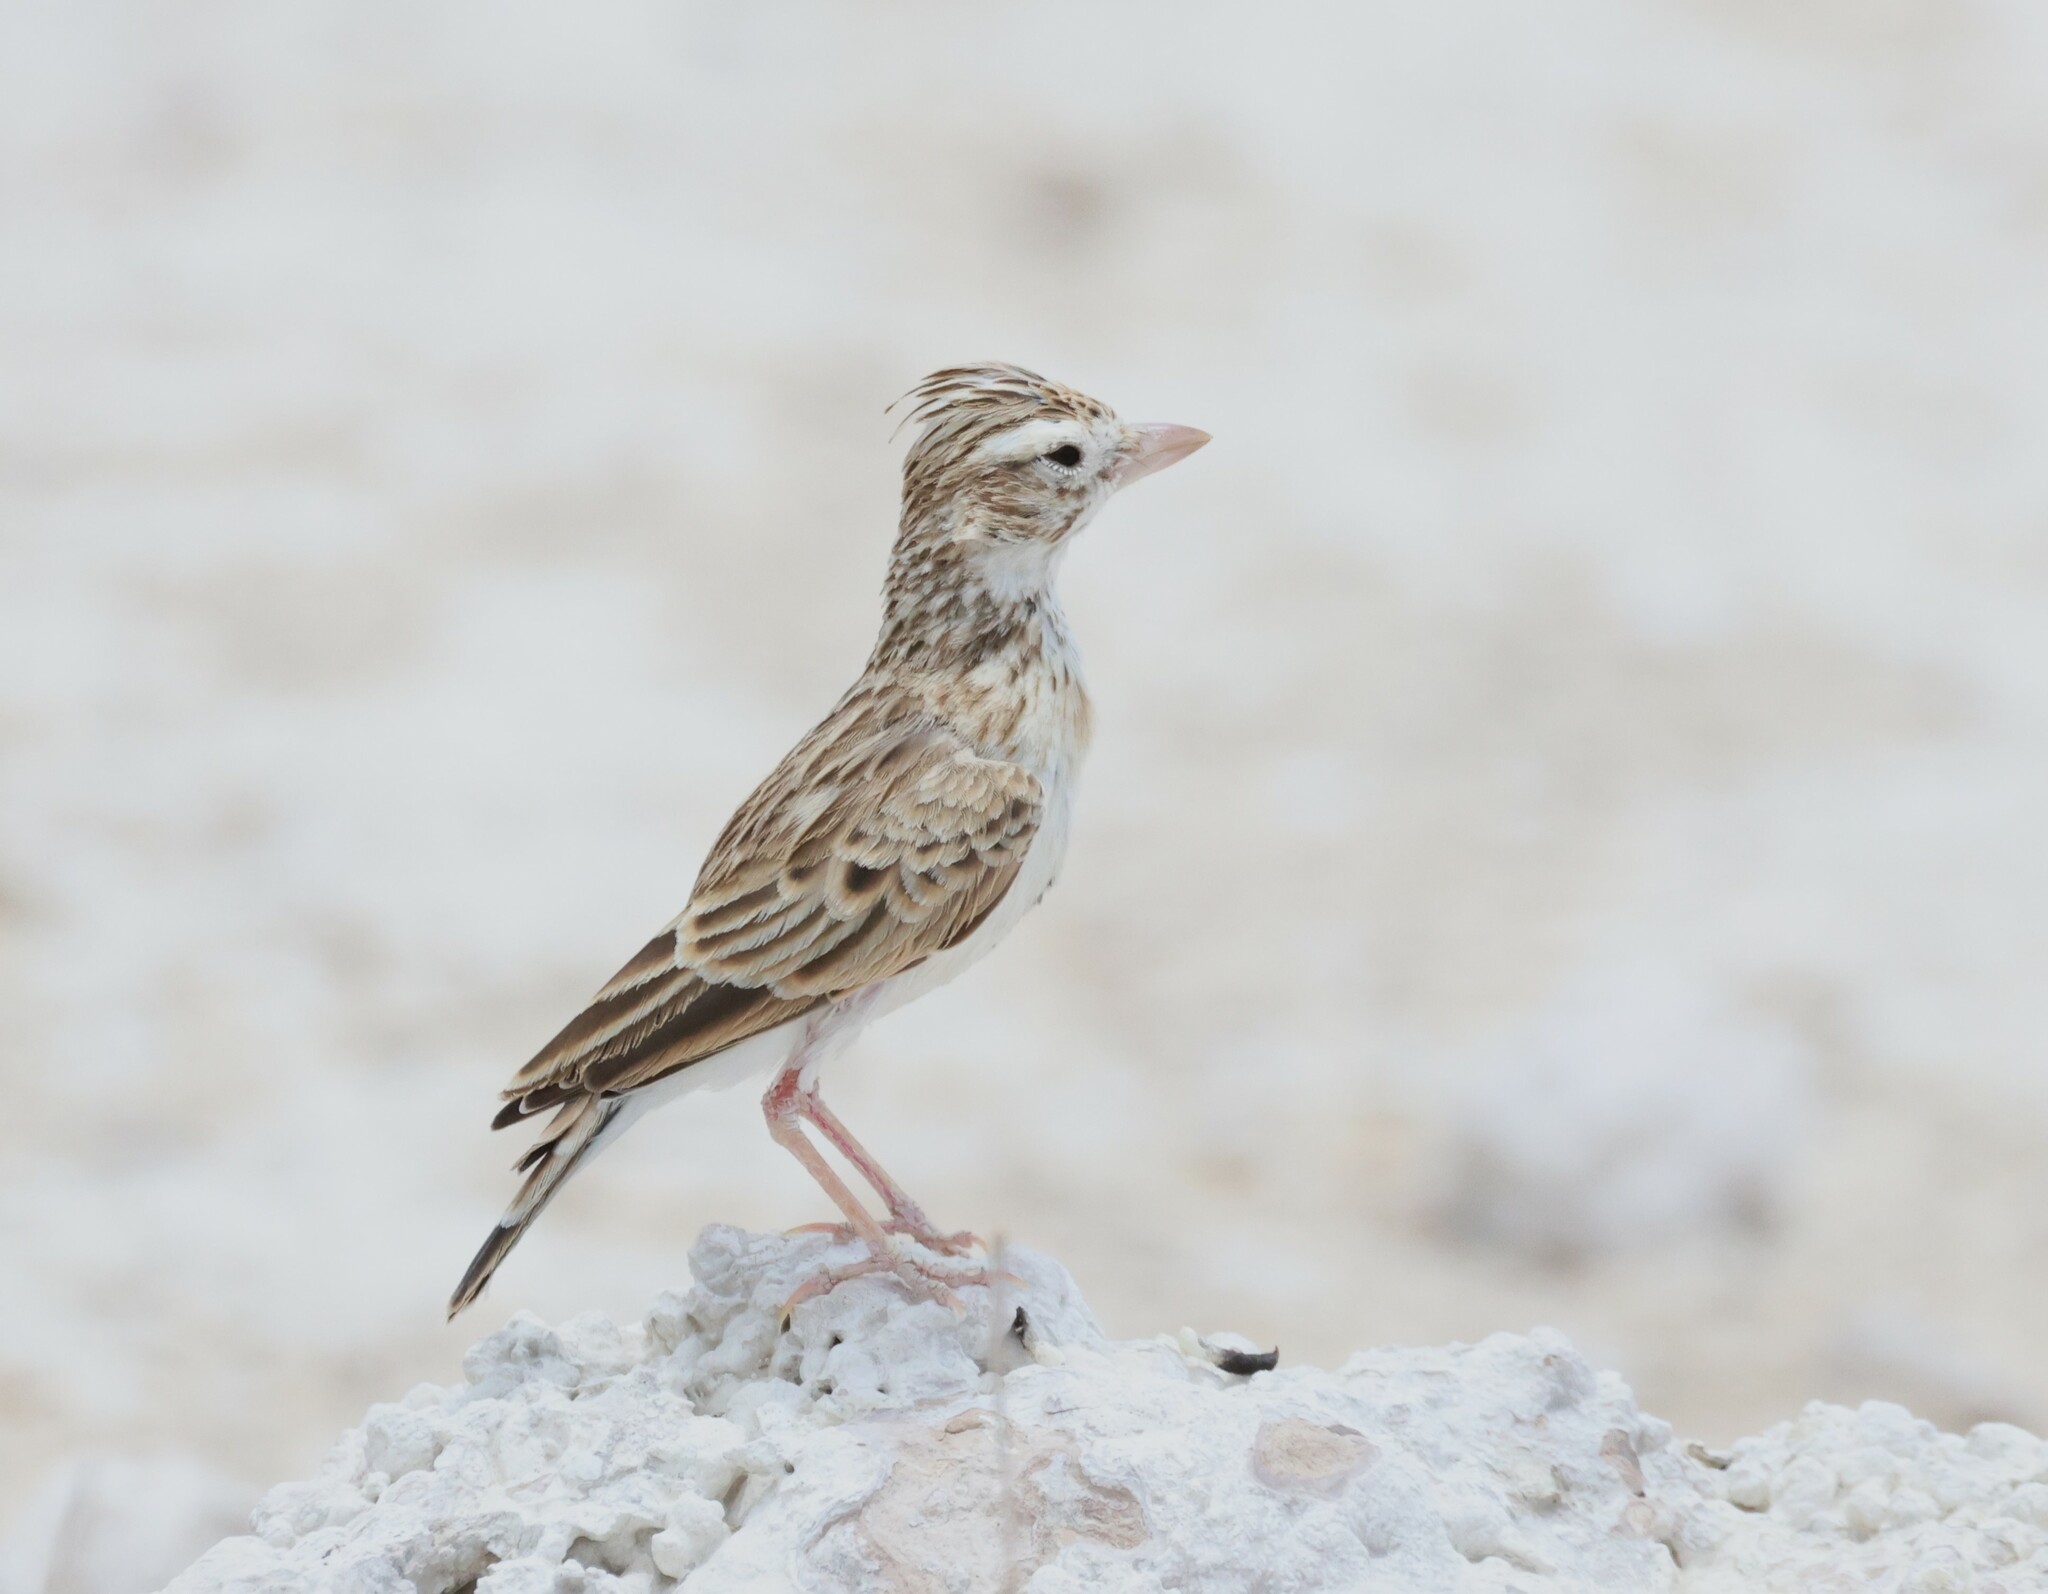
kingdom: Animalia
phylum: Chordata
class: Aves
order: Passeriformes
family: Alaudidae
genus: Spizocorys
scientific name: Spizocorys starki
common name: Stark's lark
